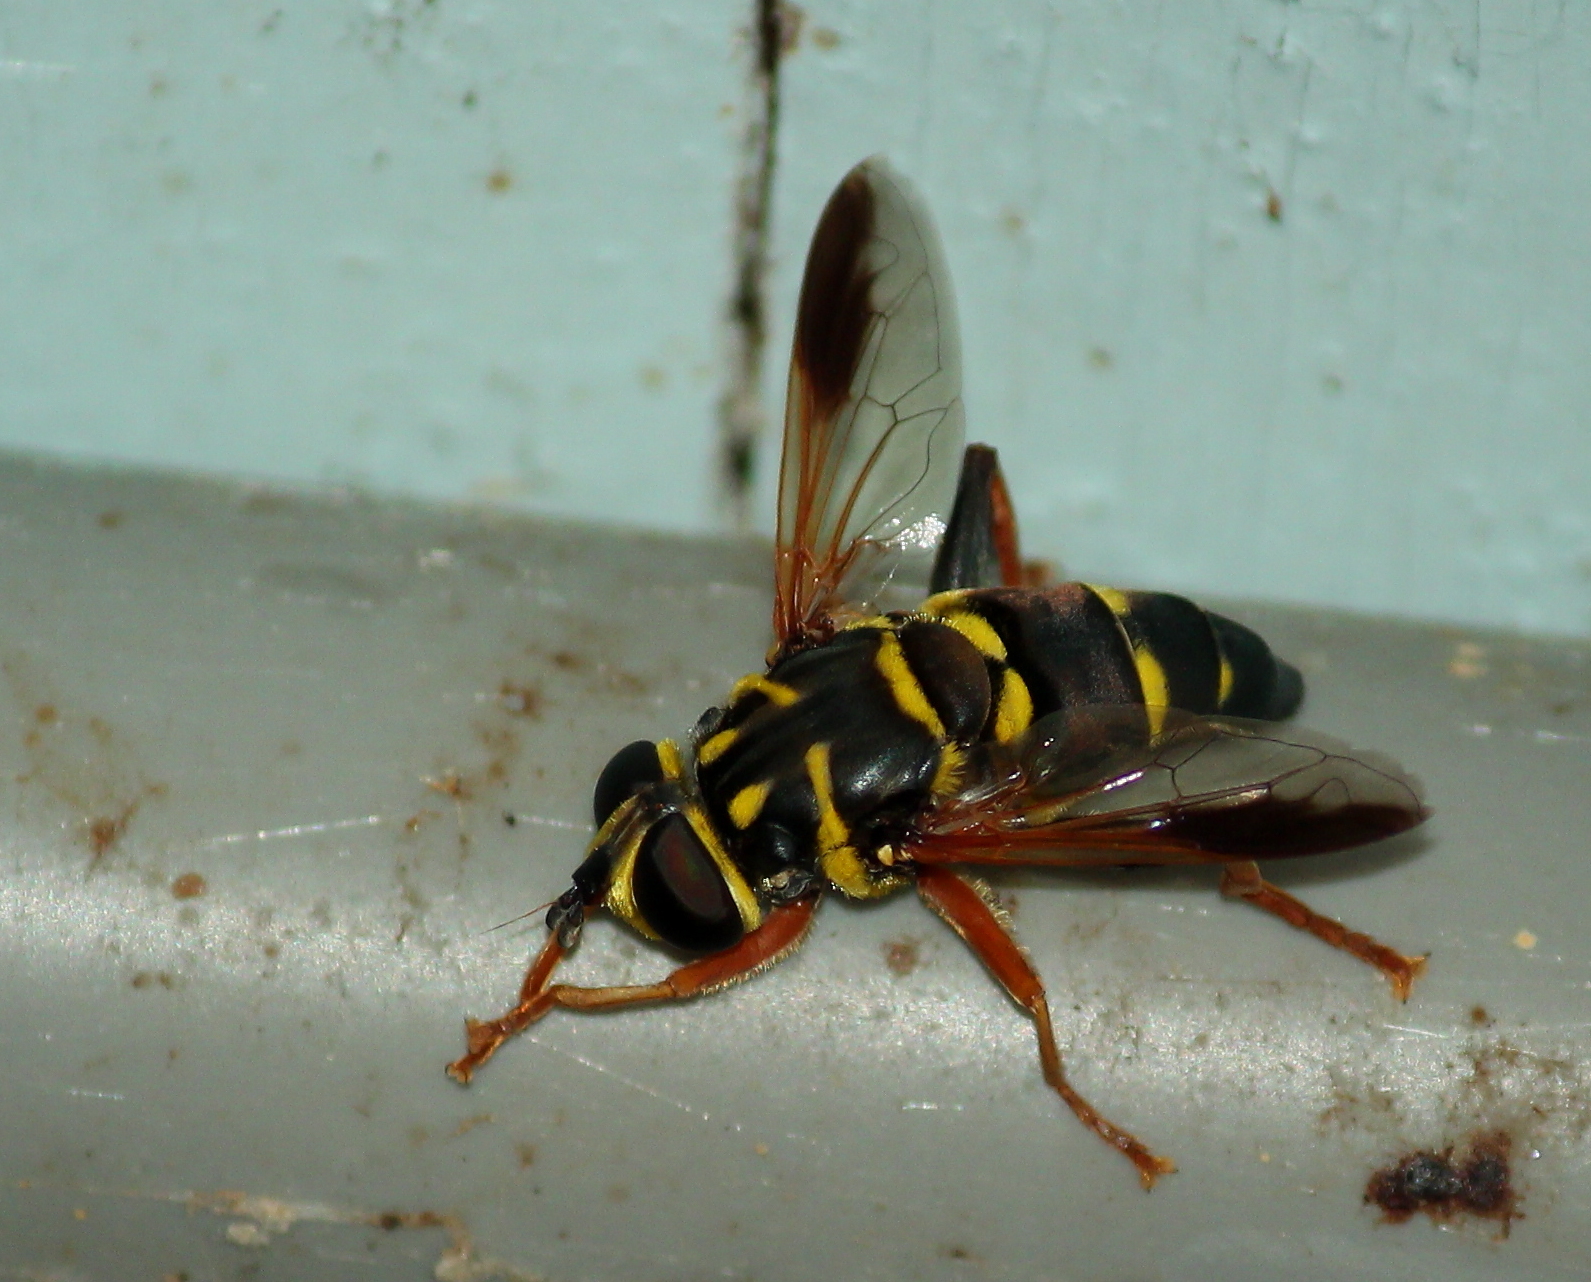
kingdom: Animalia
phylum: Arthropoda
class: Insecta
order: Diptera
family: Syrphidae
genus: Meromacrus
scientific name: Meromacrus acutus
